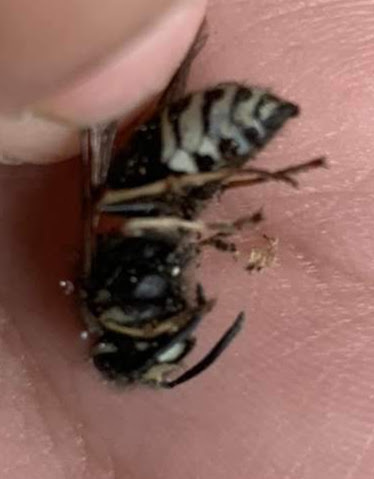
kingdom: Animalia
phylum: Arthropoda
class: Insecta
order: Hymenoptera
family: Vespidae
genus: Vespula
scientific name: Vespula consobrina
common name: Blackjacket
